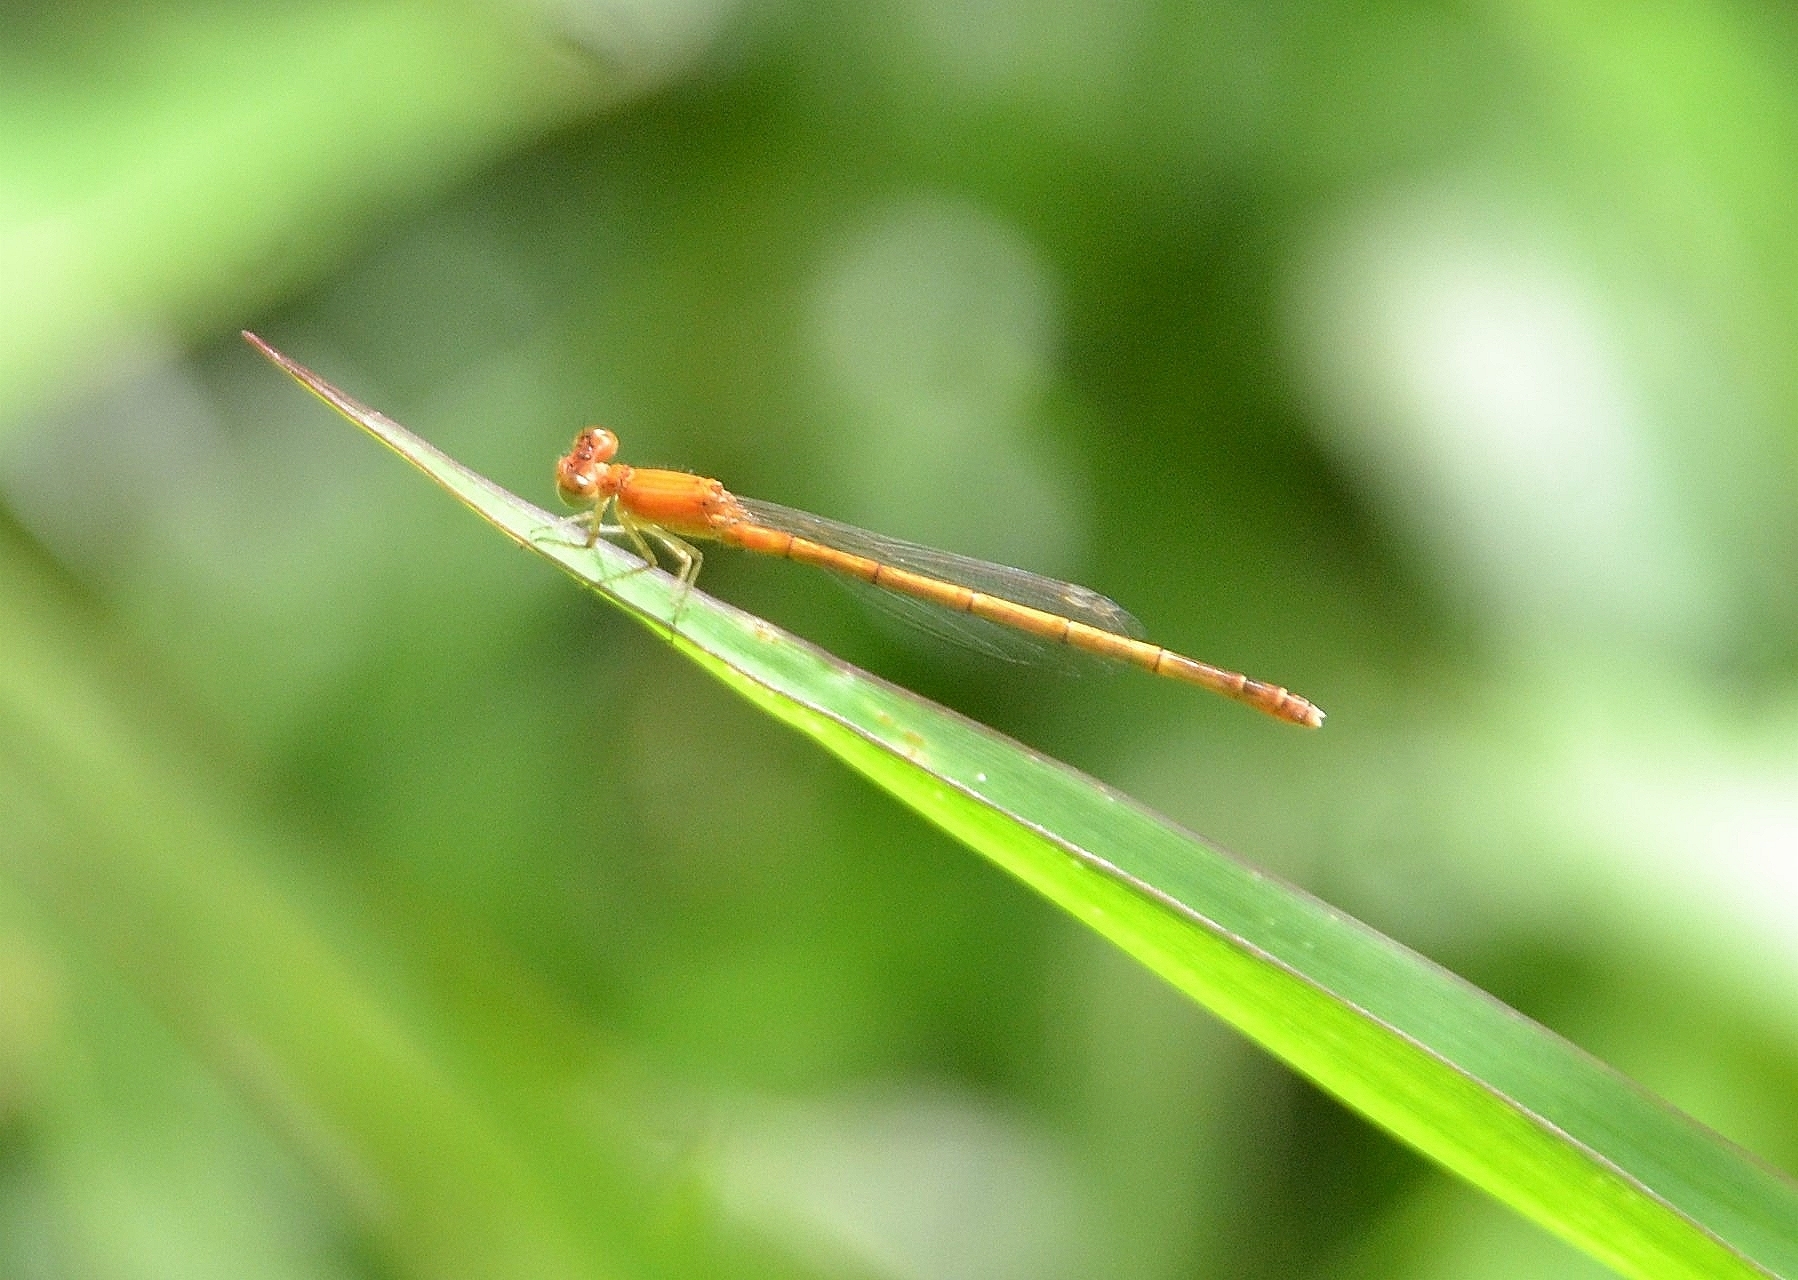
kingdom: Animalia
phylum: Arthropoda
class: Insecta
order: Odonata
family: Coenagrionidae
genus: Agriocnemis
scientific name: Agriocnemis pieris
